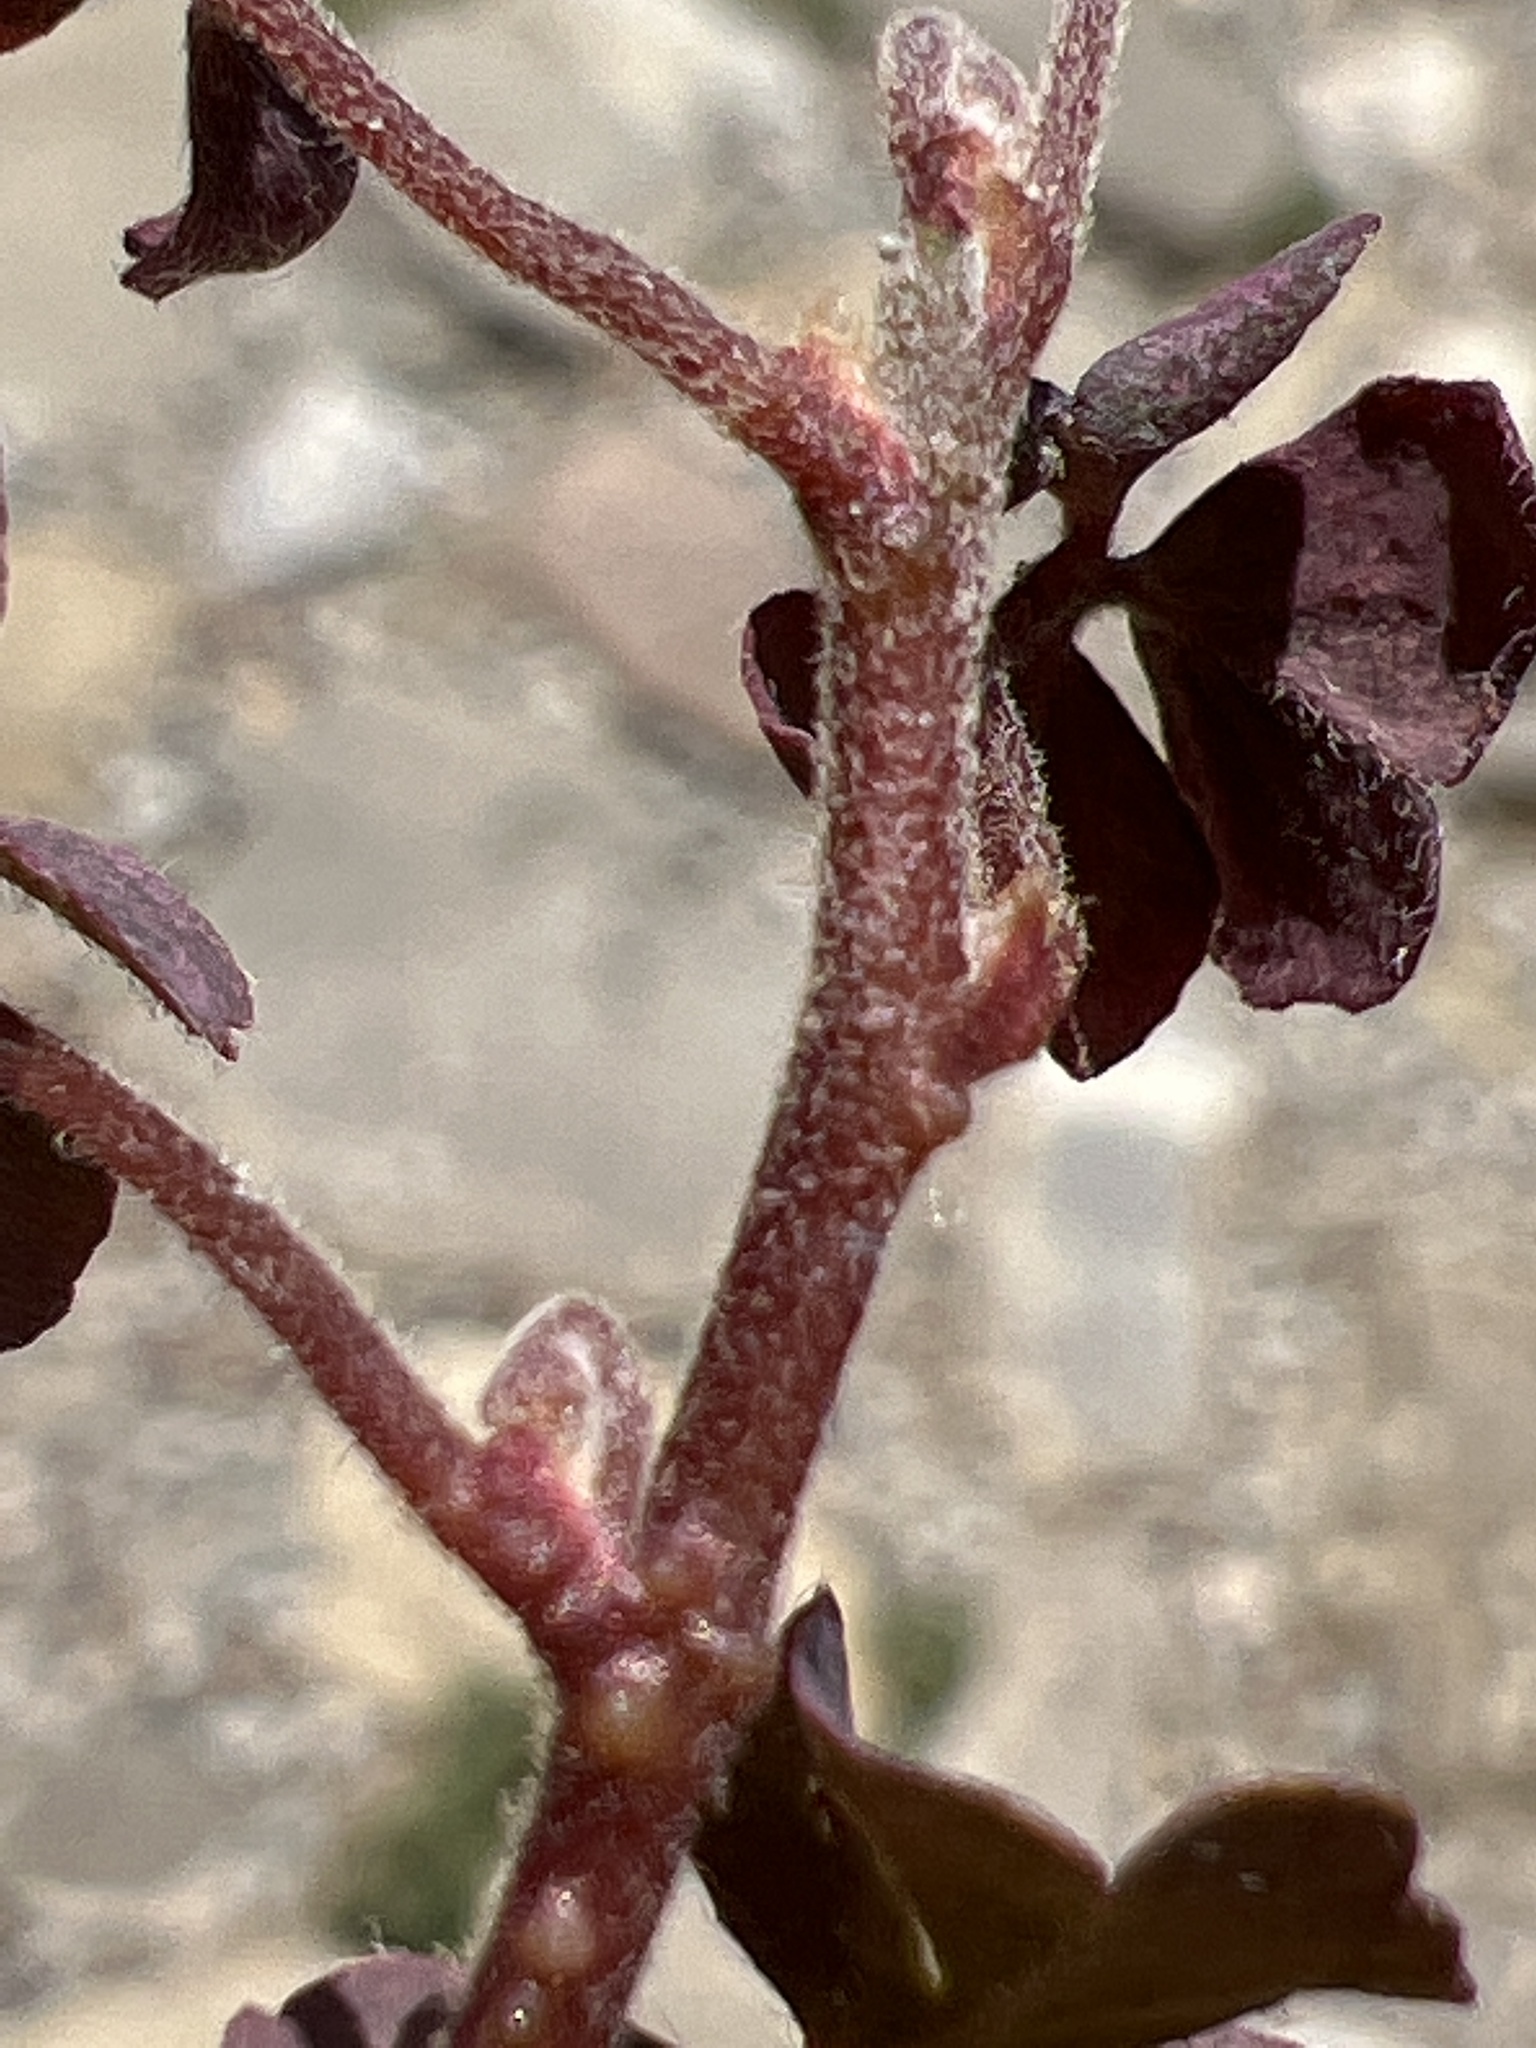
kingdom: Plantae
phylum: Tracheophyta
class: Magnoliopsida
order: Oxalidales
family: Oxalidaceae
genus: Oxalis
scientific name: Oxalis corniculata
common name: Procumbent yellow-sorrel
